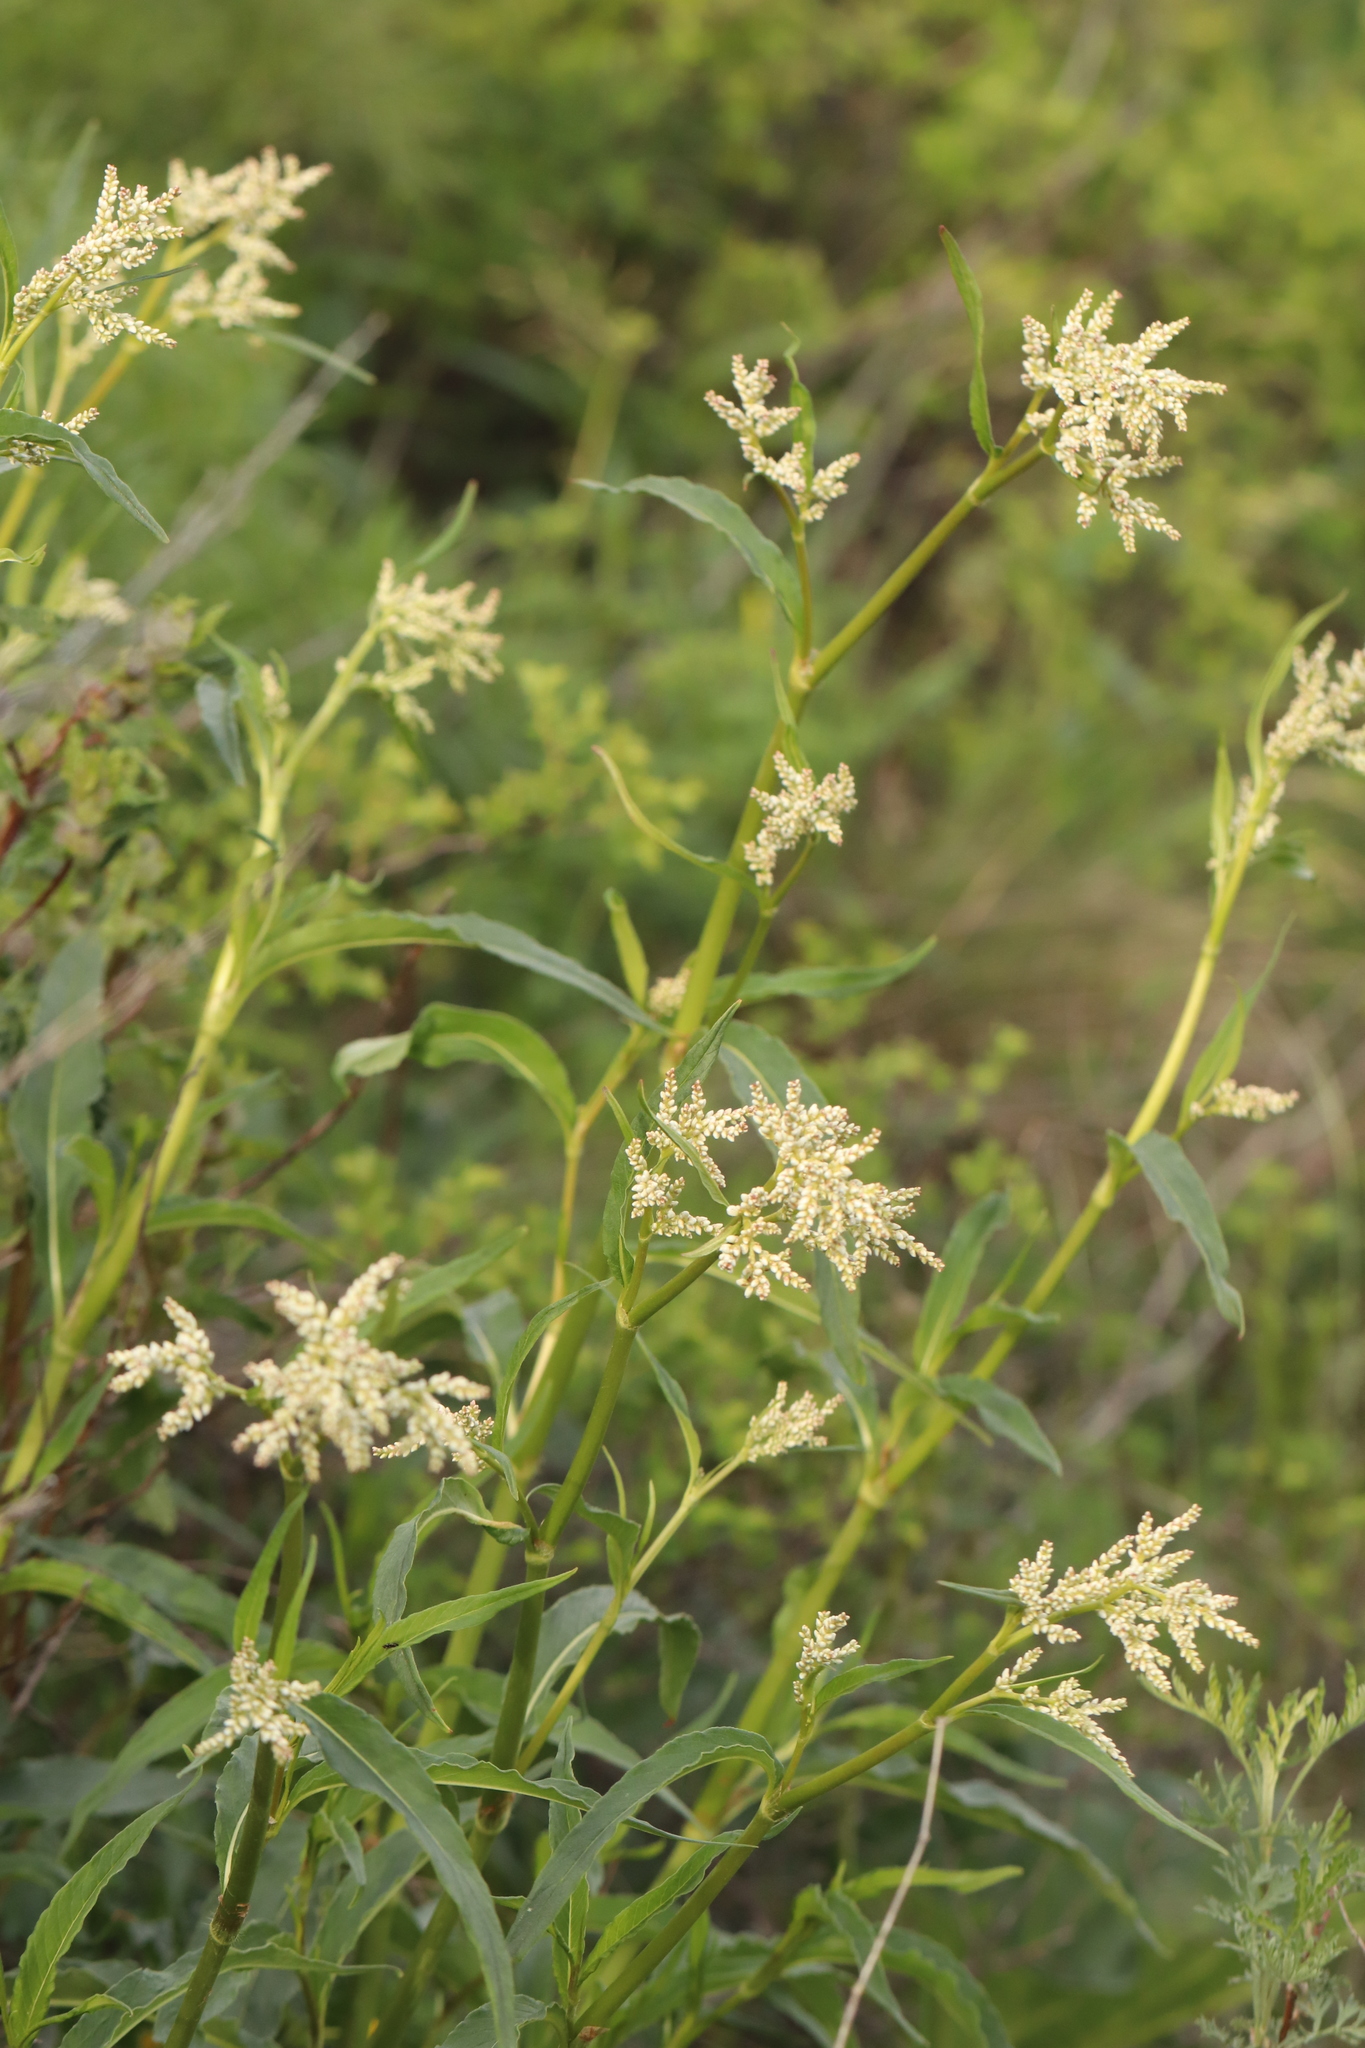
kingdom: Plantae
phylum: Tracheophyta
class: Magnoliopsida
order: Caryophyllales
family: Polygonaceae
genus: Koenigia
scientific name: Koenigia alpina
